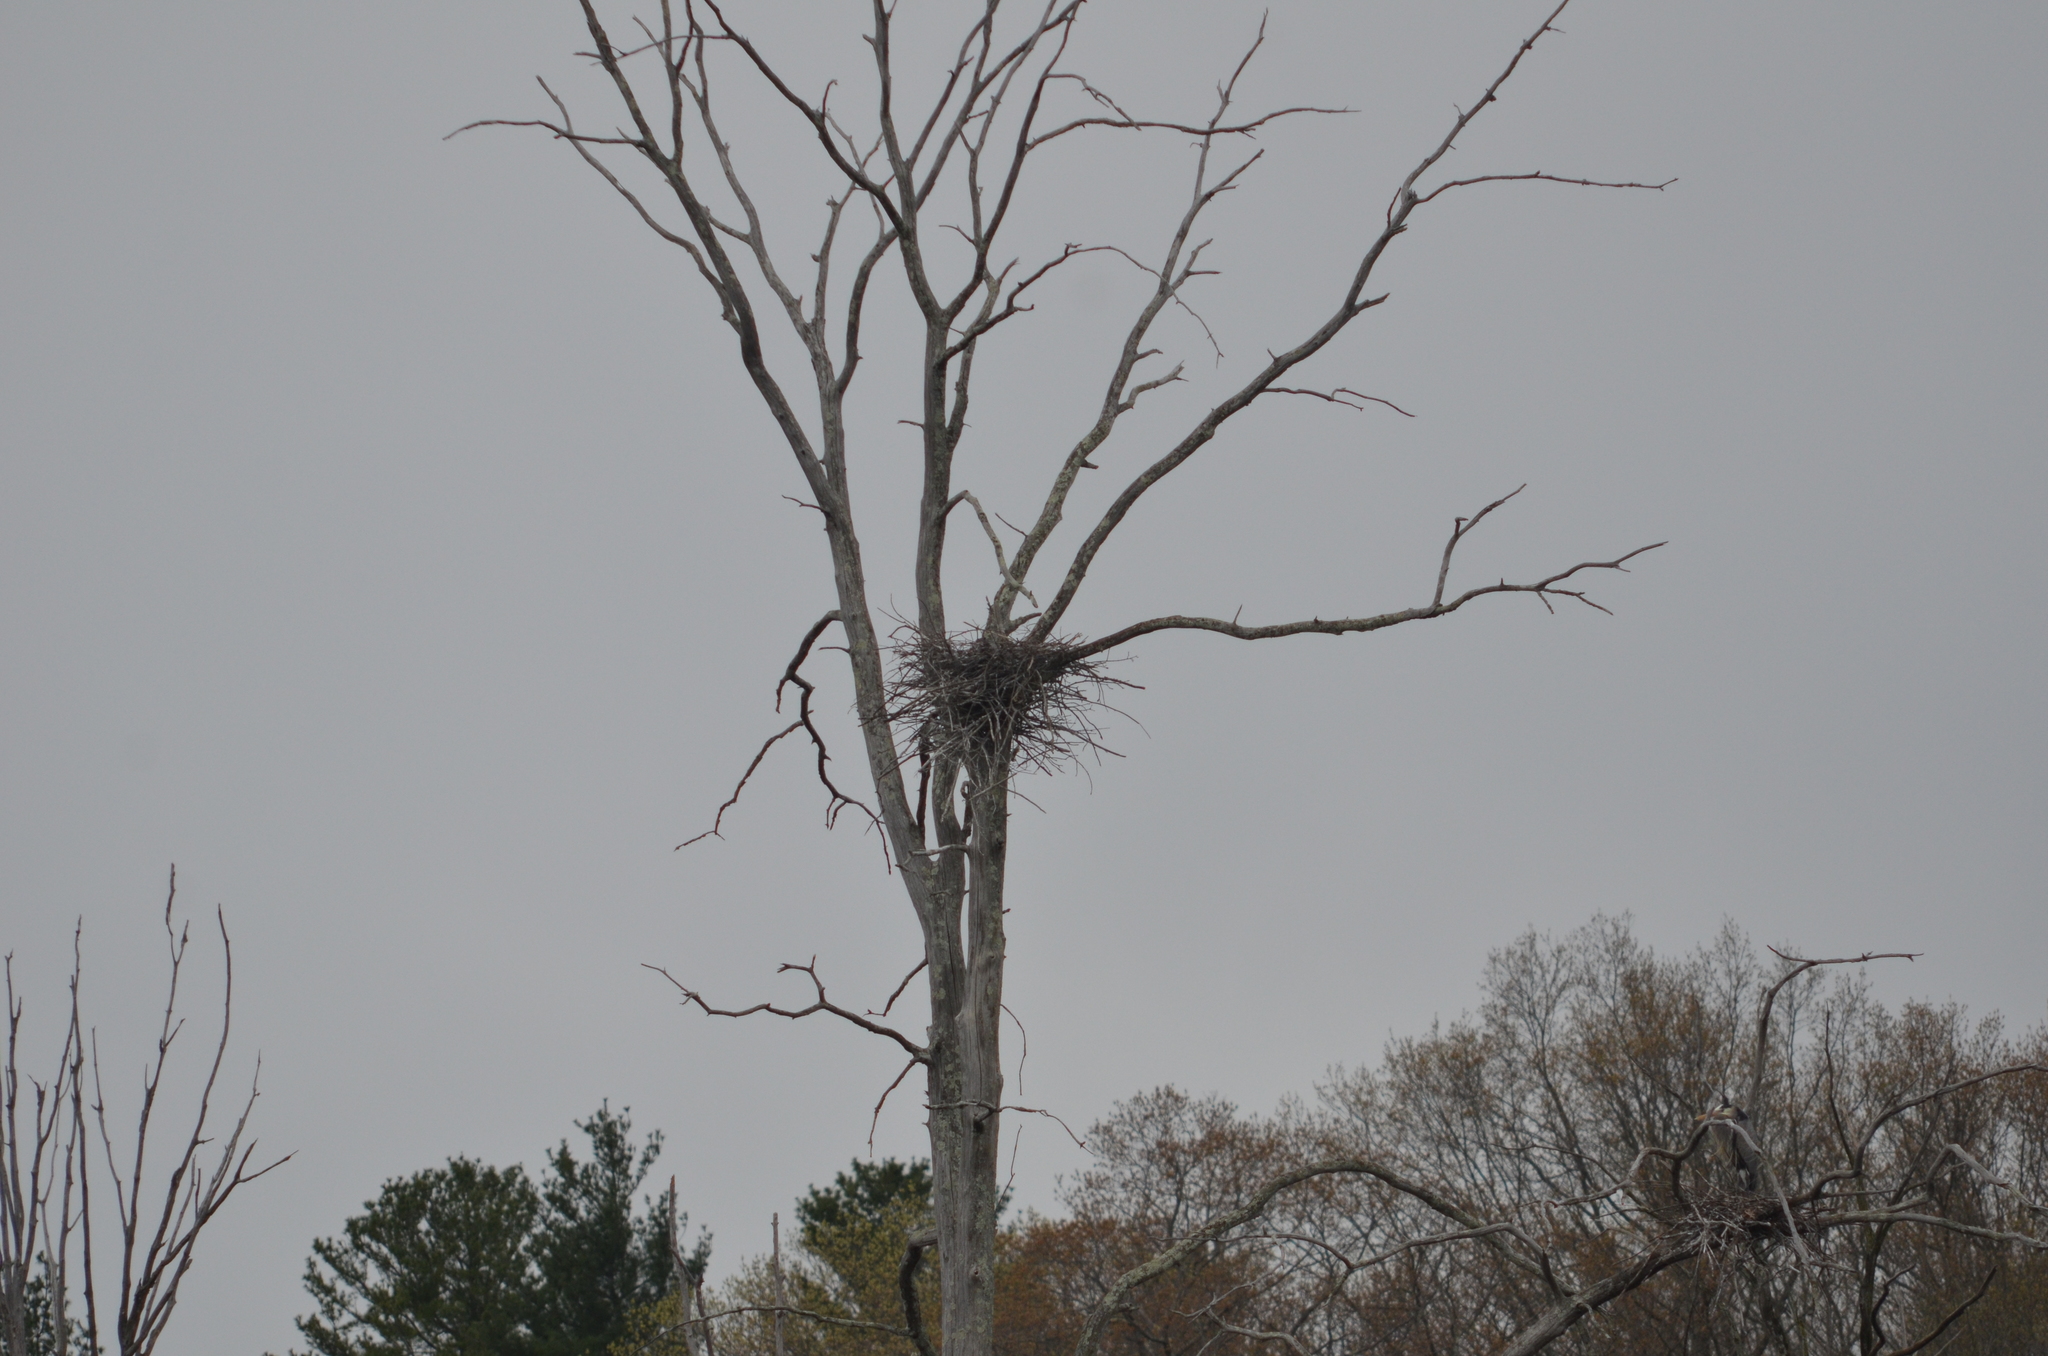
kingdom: Animalia
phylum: Chordata
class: Aves
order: Pelecaniformes
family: Ardeidae
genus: Ardea
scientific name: Ardea herodias
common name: Great blue heron
